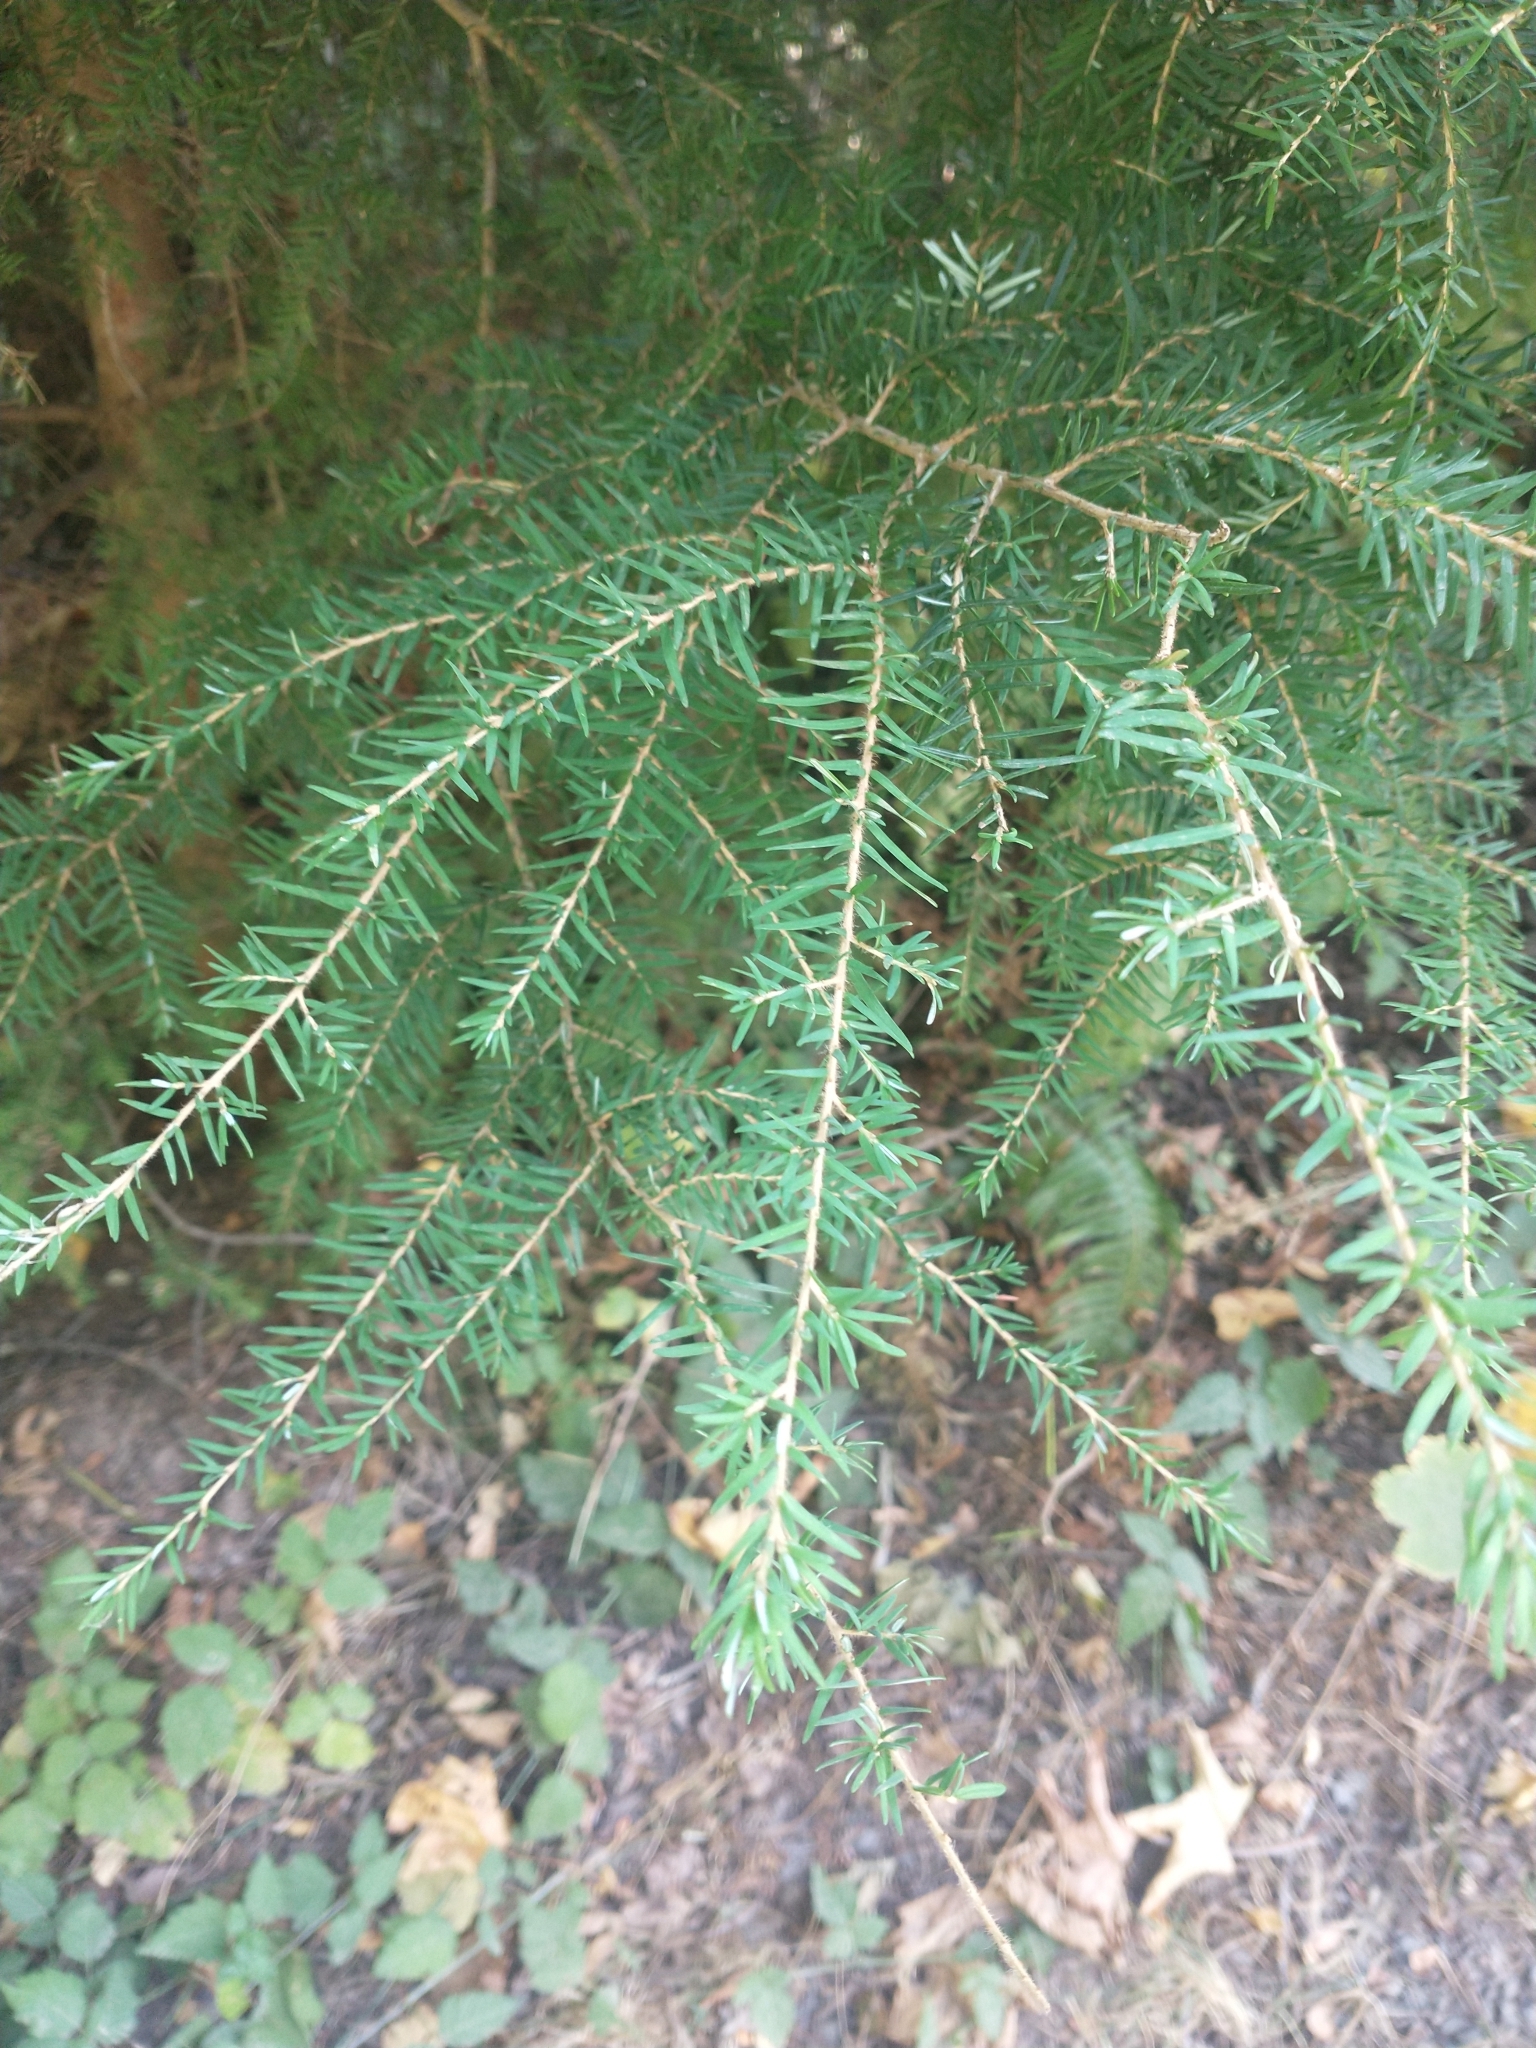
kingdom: Plantae
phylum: Tracheophyta
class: Pinopsida
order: Pinales
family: Pinaceae
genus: Tsuga
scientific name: Tsuga heterophylla
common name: Western hemlock
